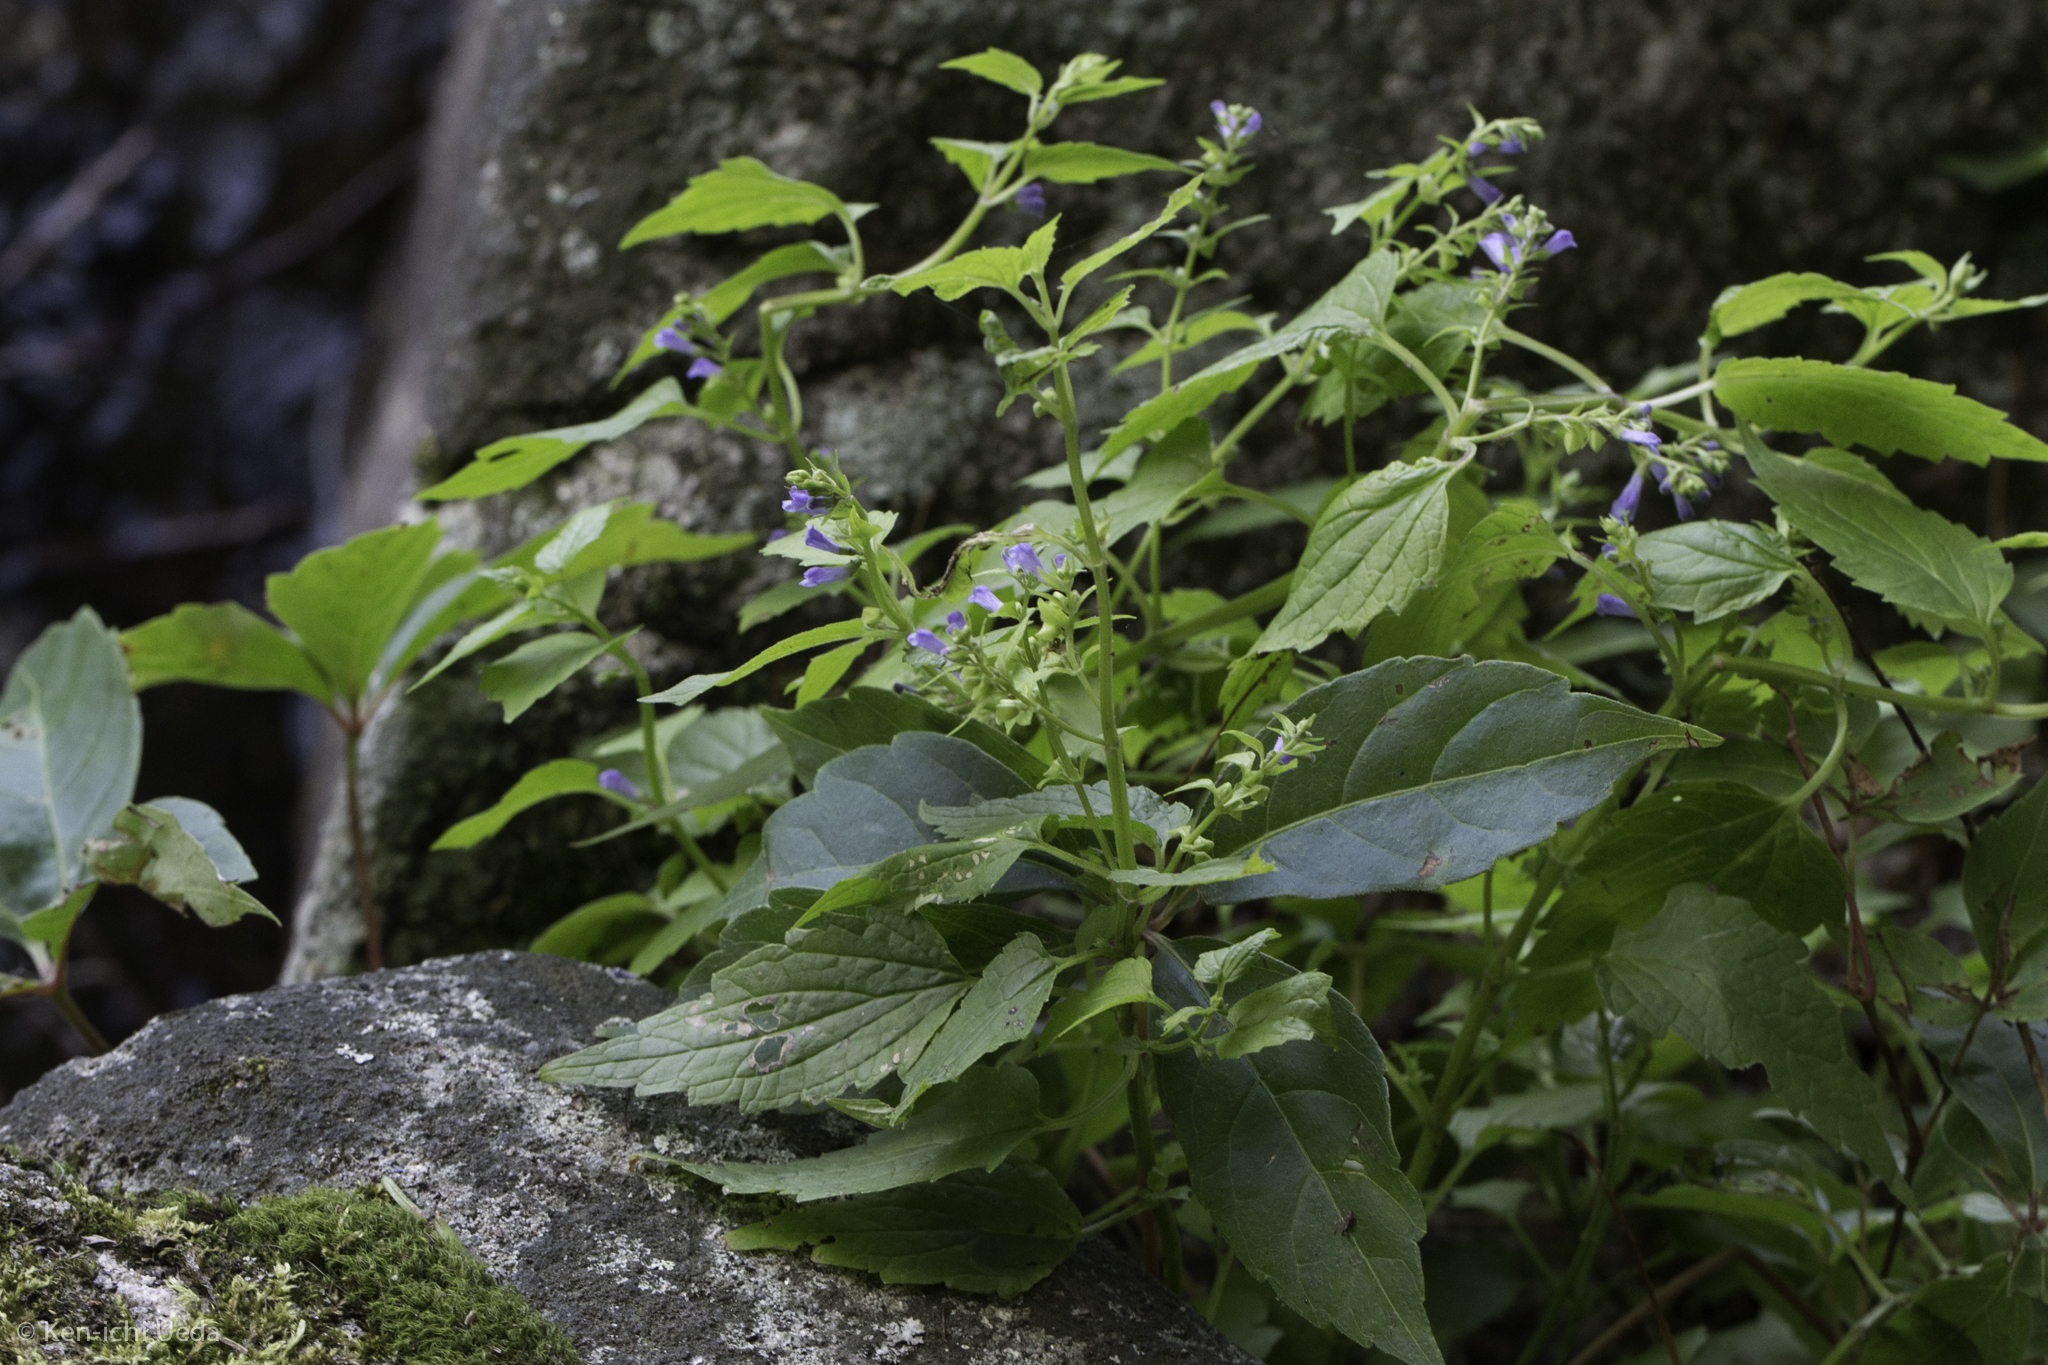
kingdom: Plantae
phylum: Tracheophyta
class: Magnoliopsida
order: Lamiales
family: Lamiaceae
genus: Scutellaria
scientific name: Scutellaria lateriflora
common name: Blue skullcap
